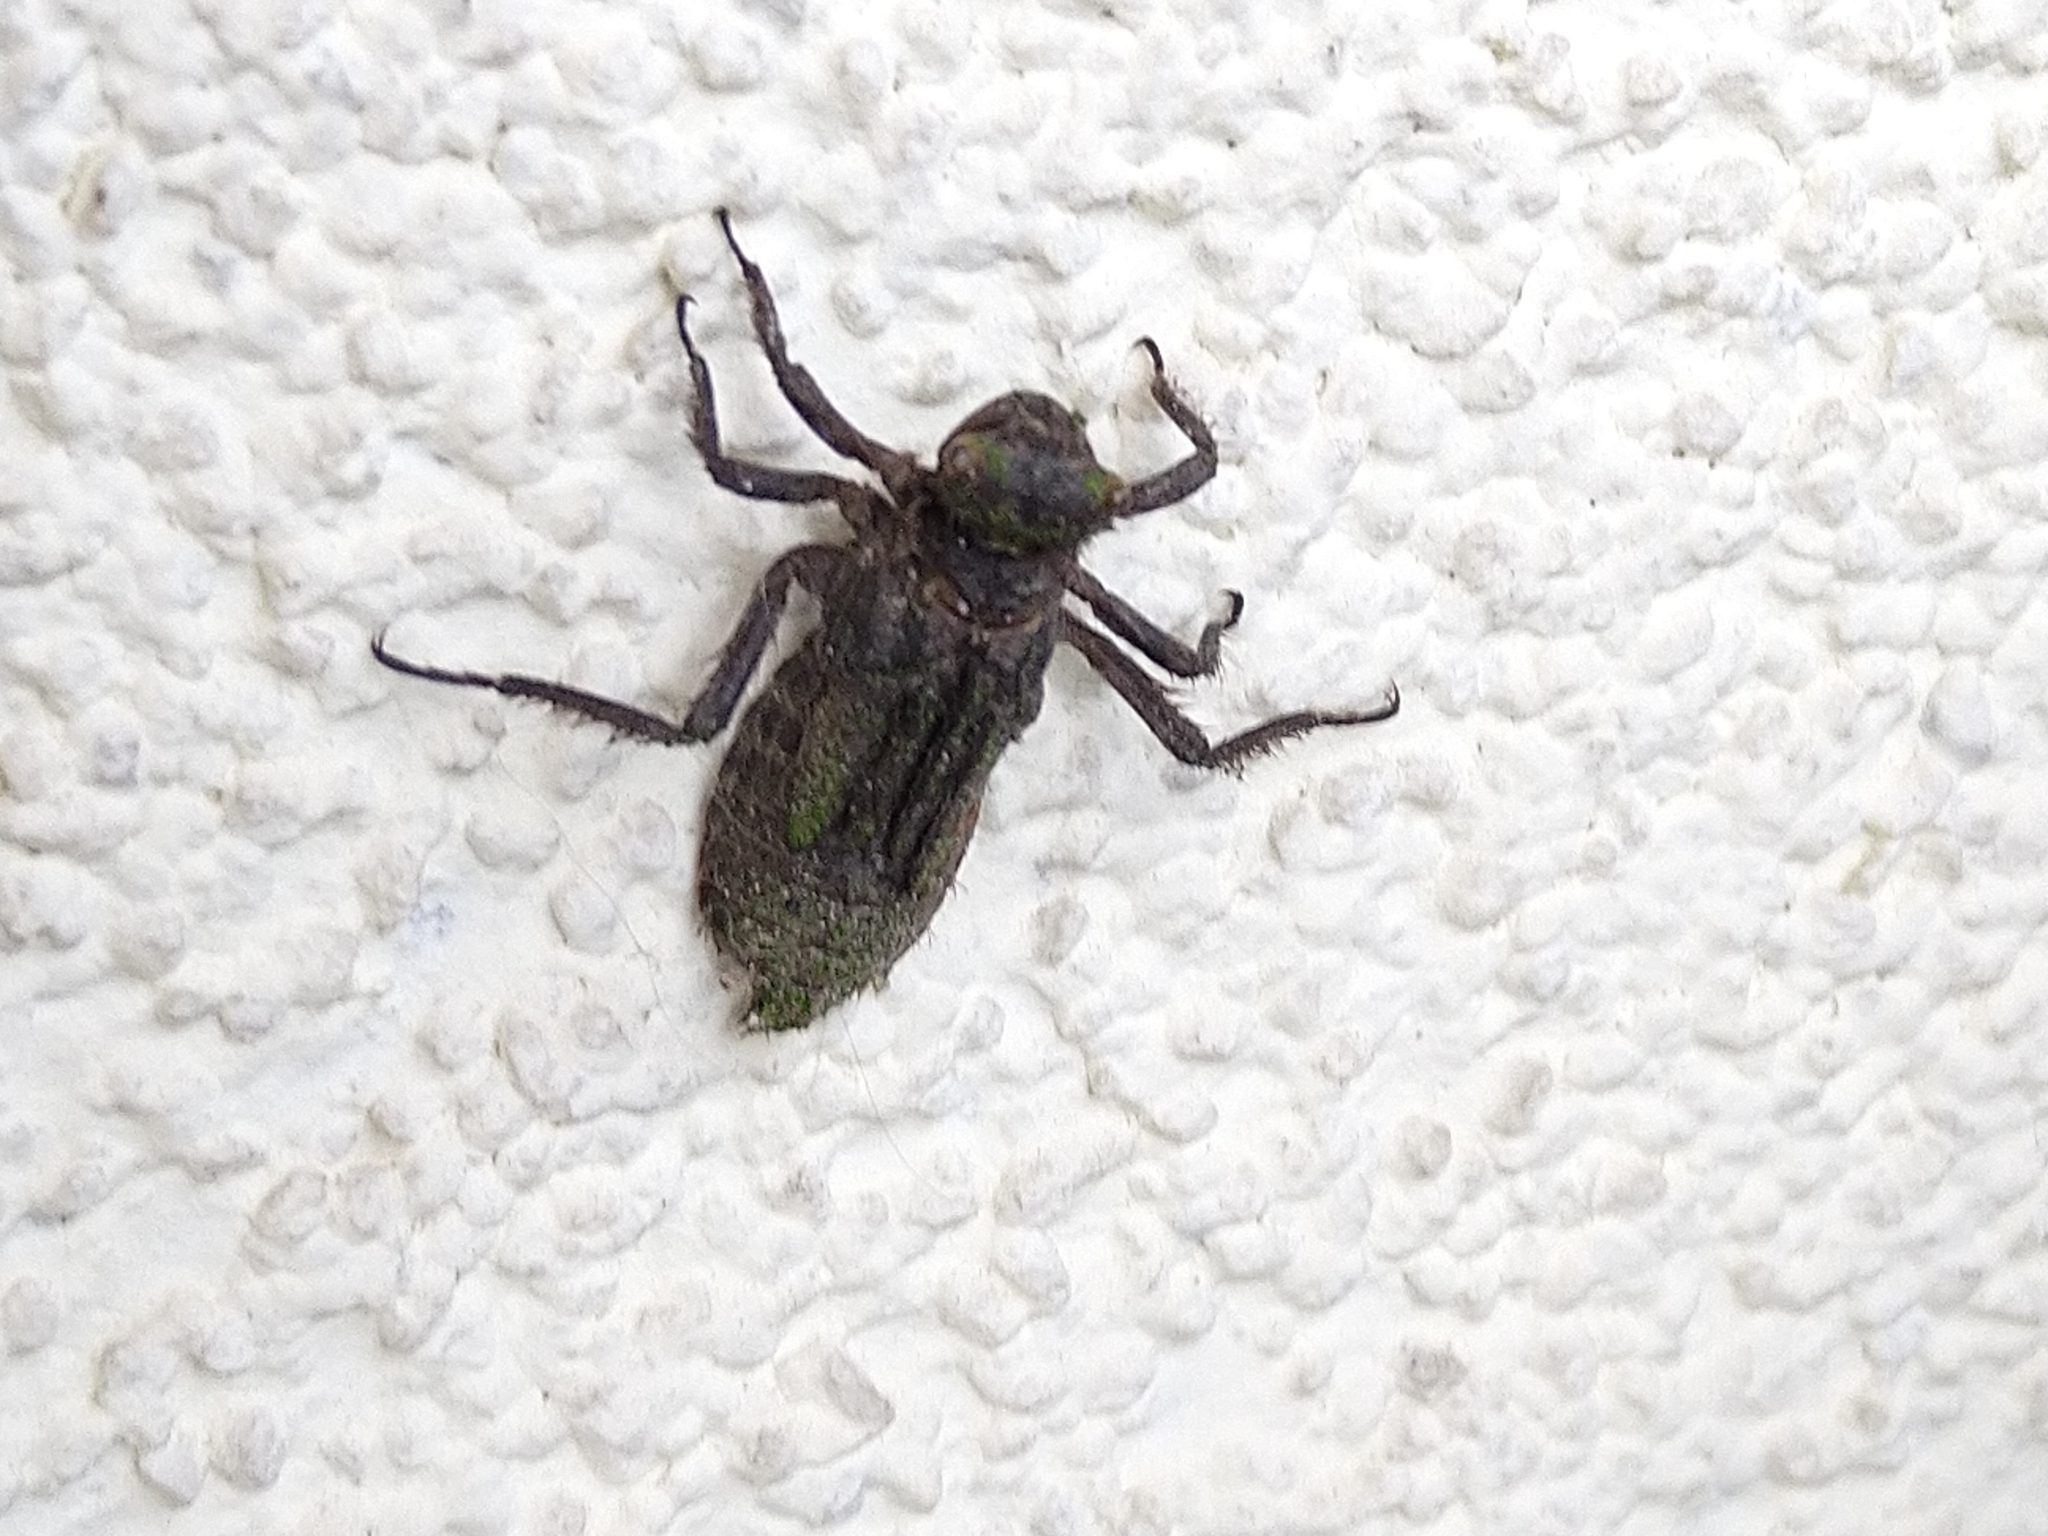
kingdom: Animalia
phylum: Arthropoda
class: Insecta
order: Odonata
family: Libellulidae
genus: Libellula
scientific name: Libellula depressa
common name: Broad-bodied chaser
